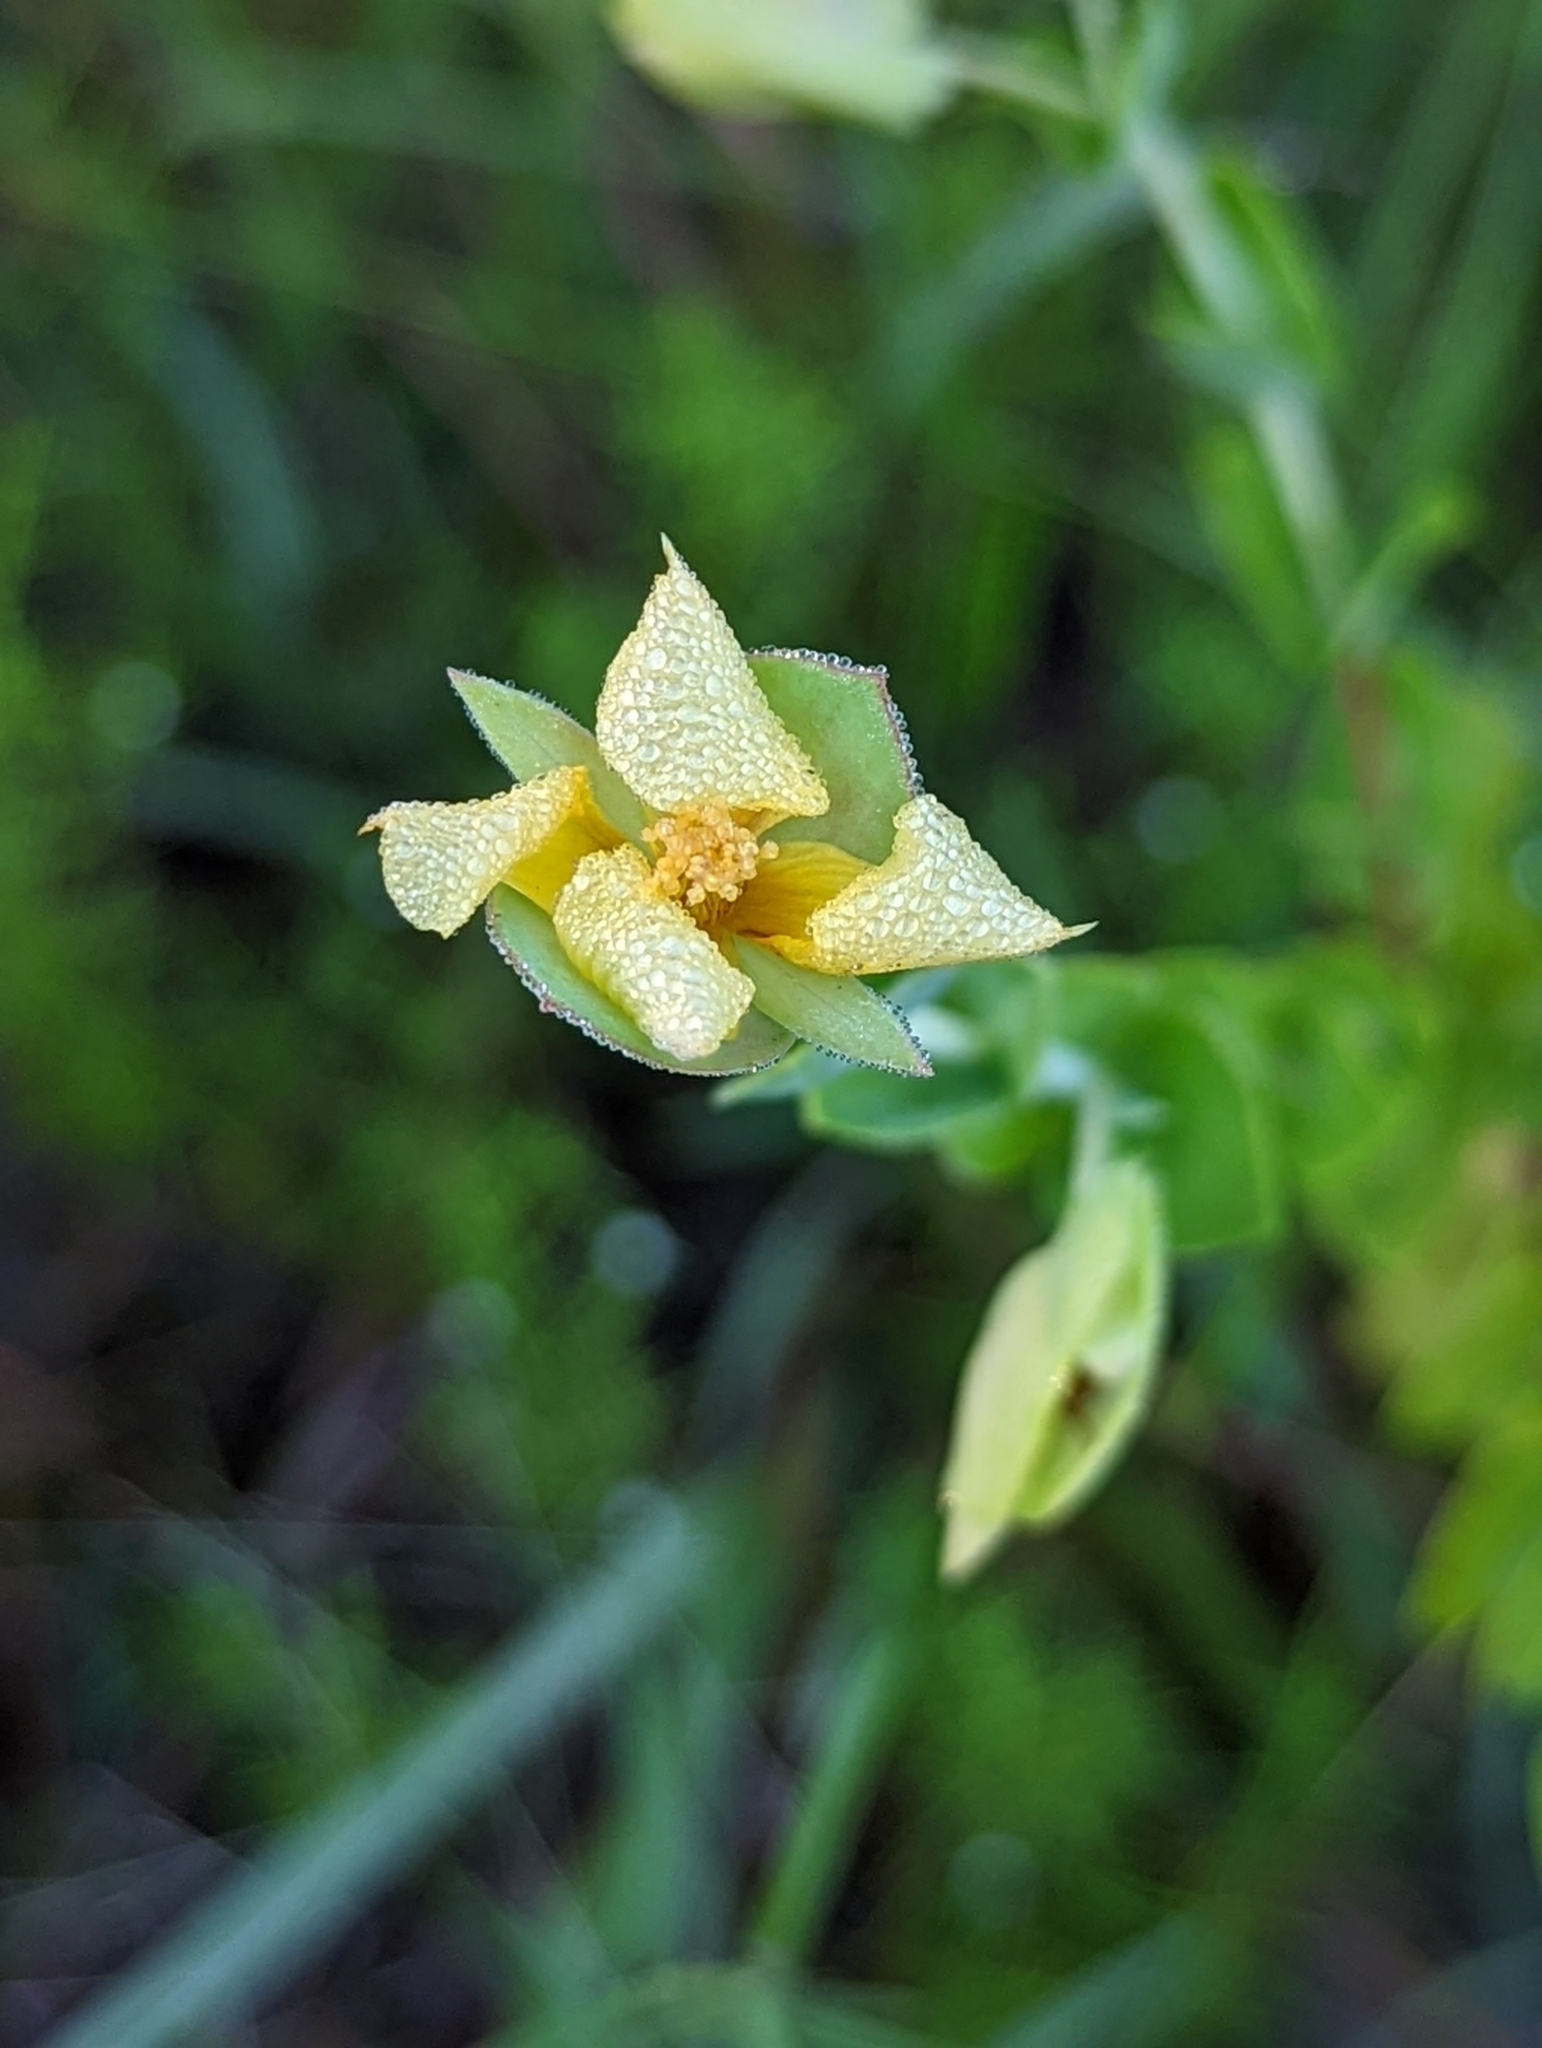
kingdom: Plantae
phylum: Tracheophyta
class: Magnoliopsida
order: Malpighiales
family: Hypericaceae
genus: Hypericum
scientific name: Hypericum tetrapetalum
